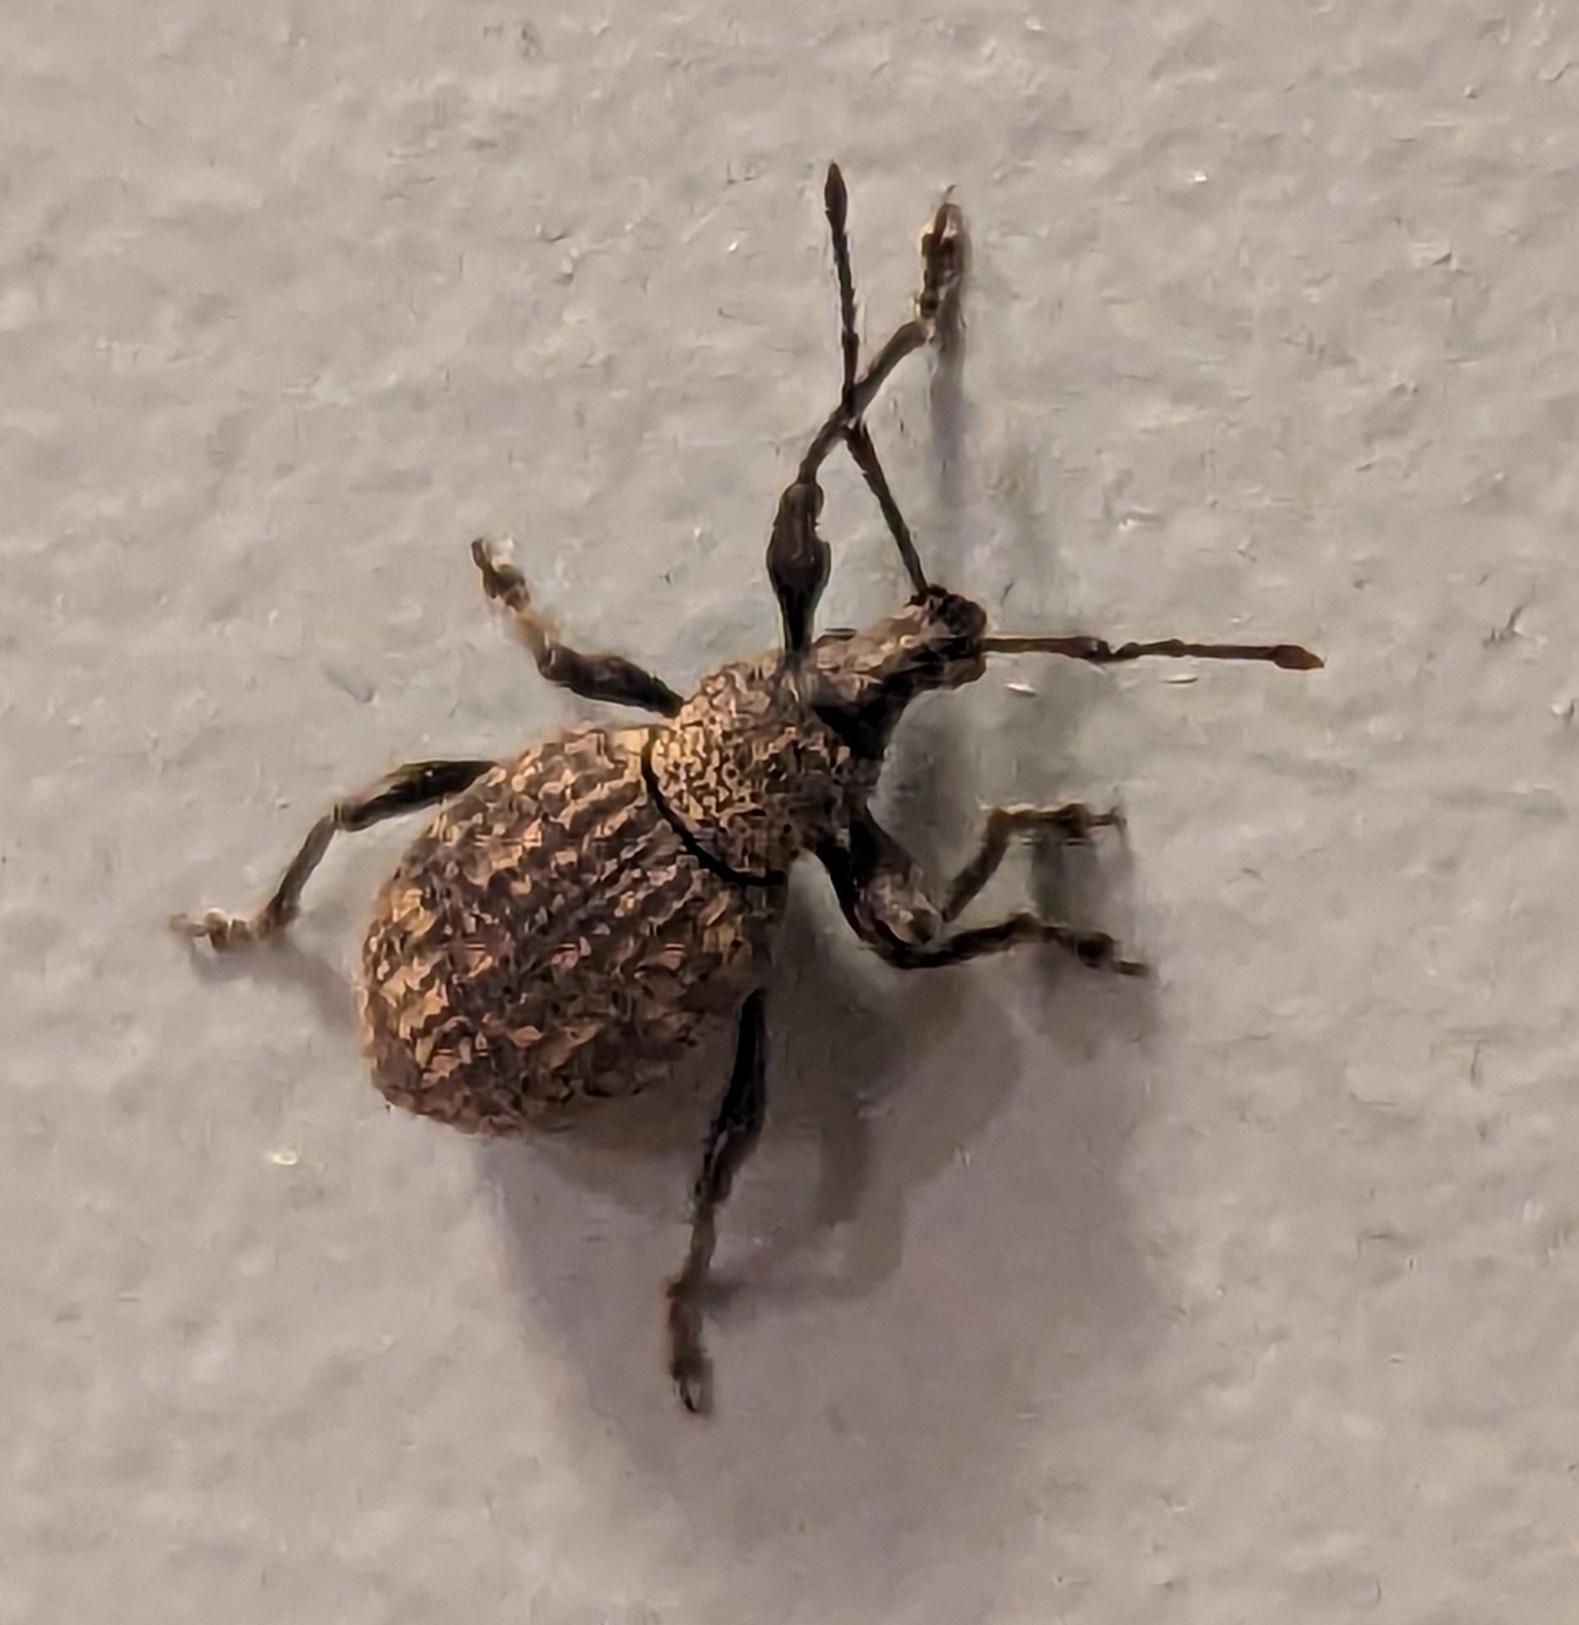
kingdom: Animalia
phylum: Arthropoda
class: Insecta
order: Coleoptera
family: Curculionidae
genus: Otiorhynchus
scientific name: Otiorhynchus sulcatus
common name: Black vine weevil
